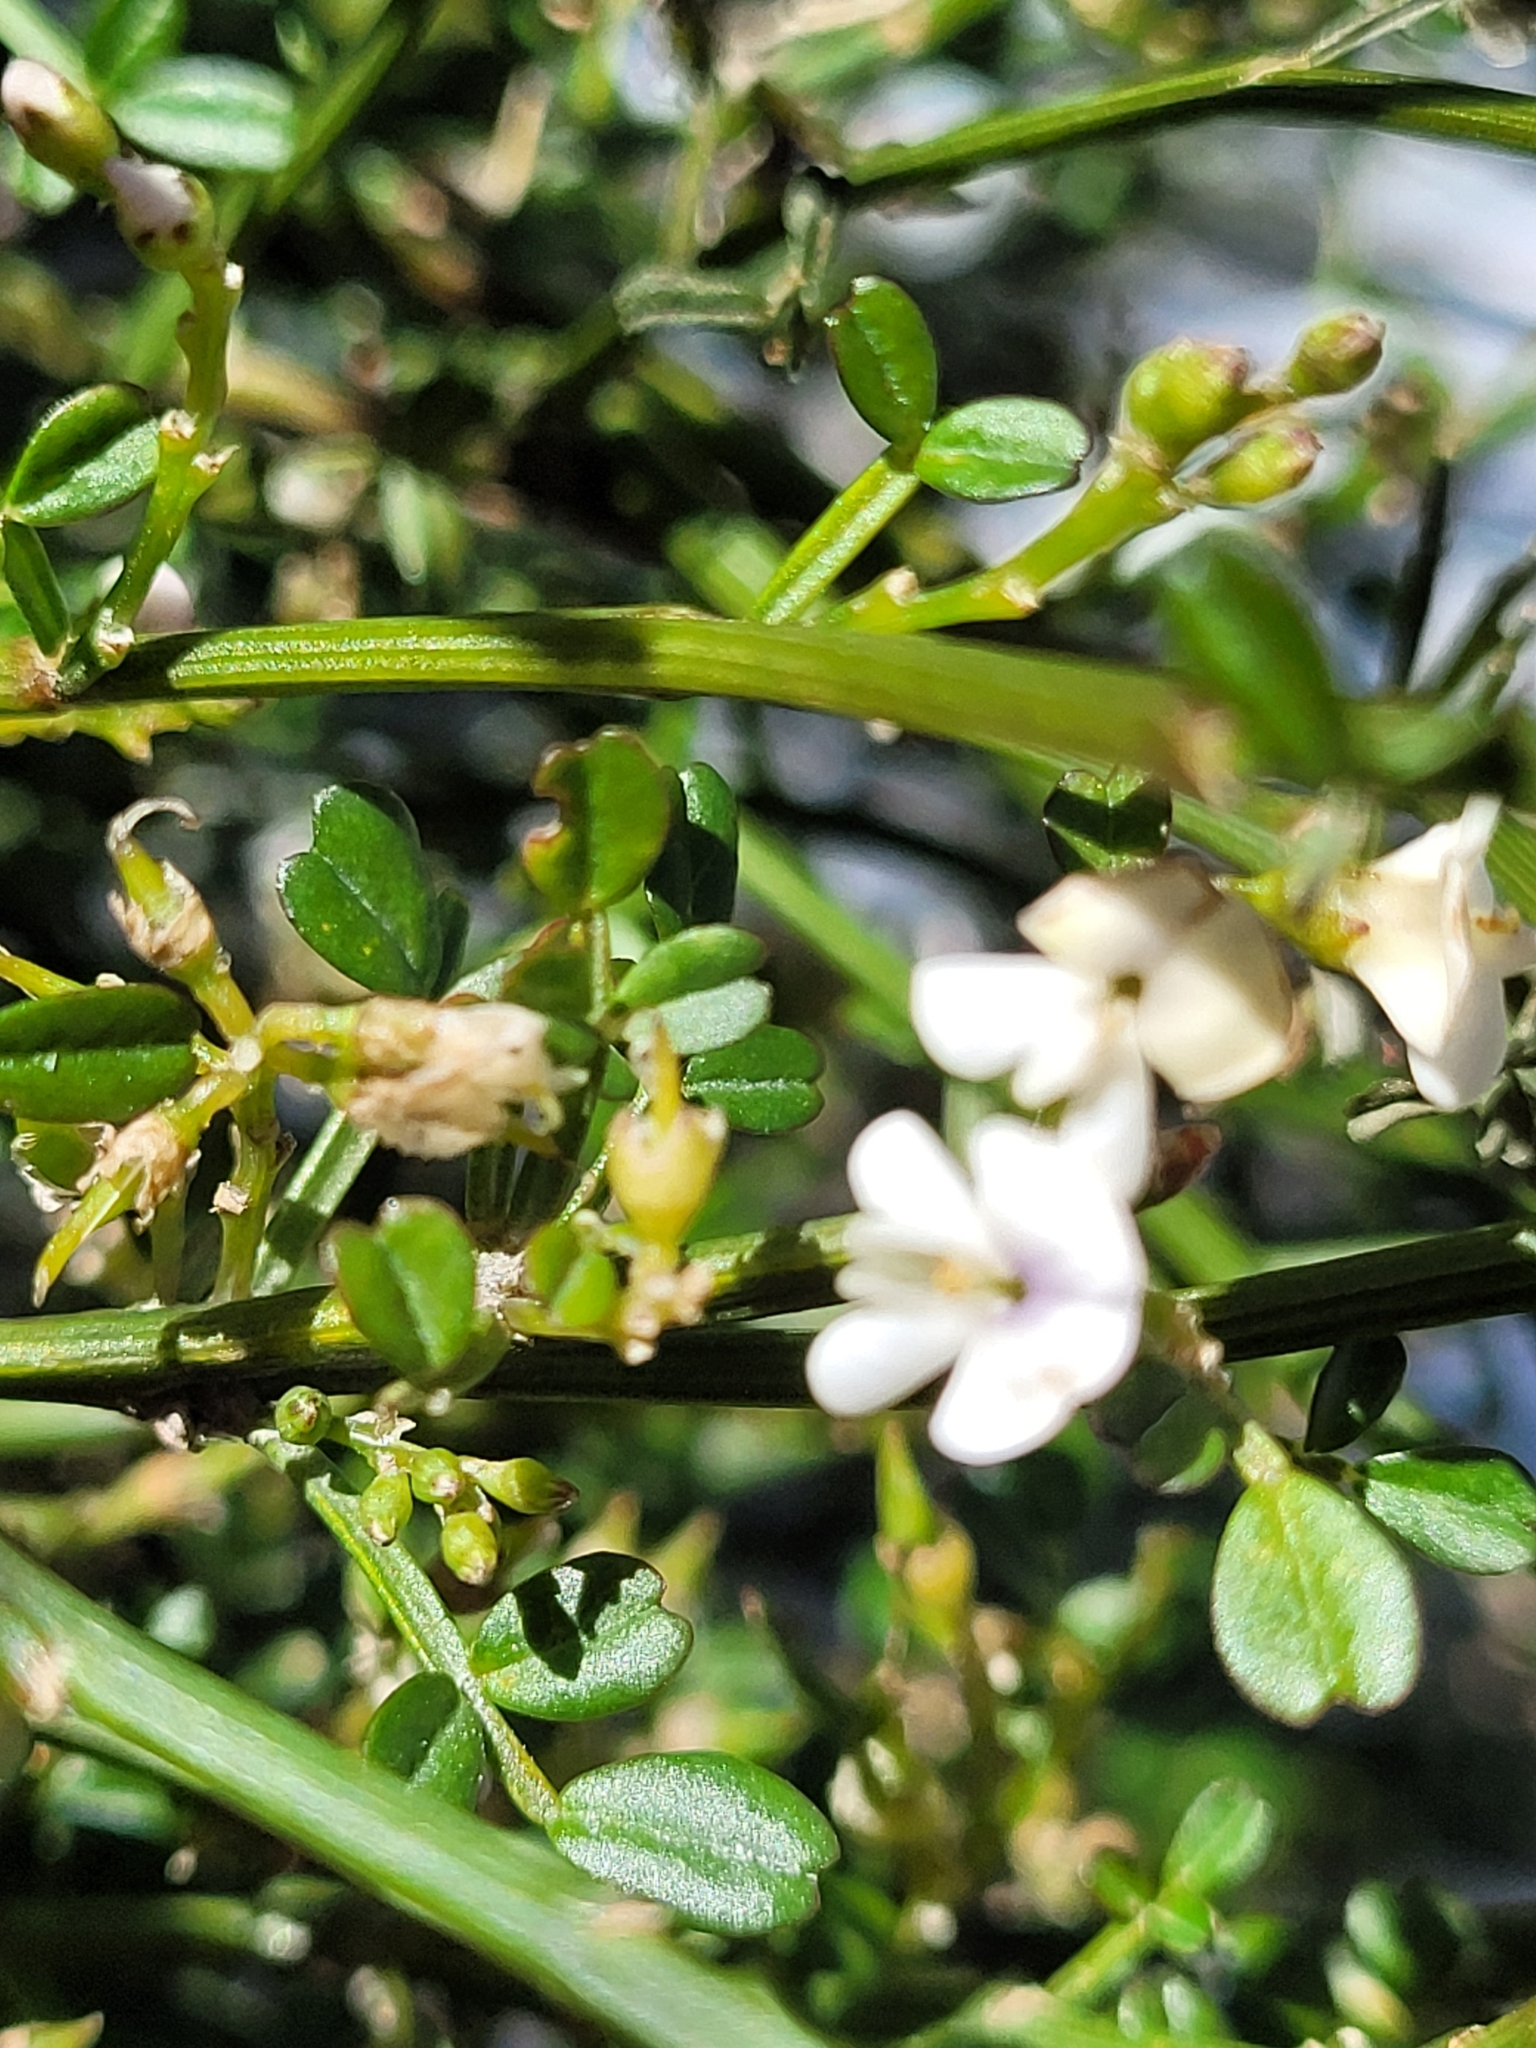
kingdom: Plantae
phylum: Tracheophyta
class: Magnoliopsida
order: Fabales
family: Fabaceae
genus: Carmichaelia
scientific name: Carmichaelia arborea
